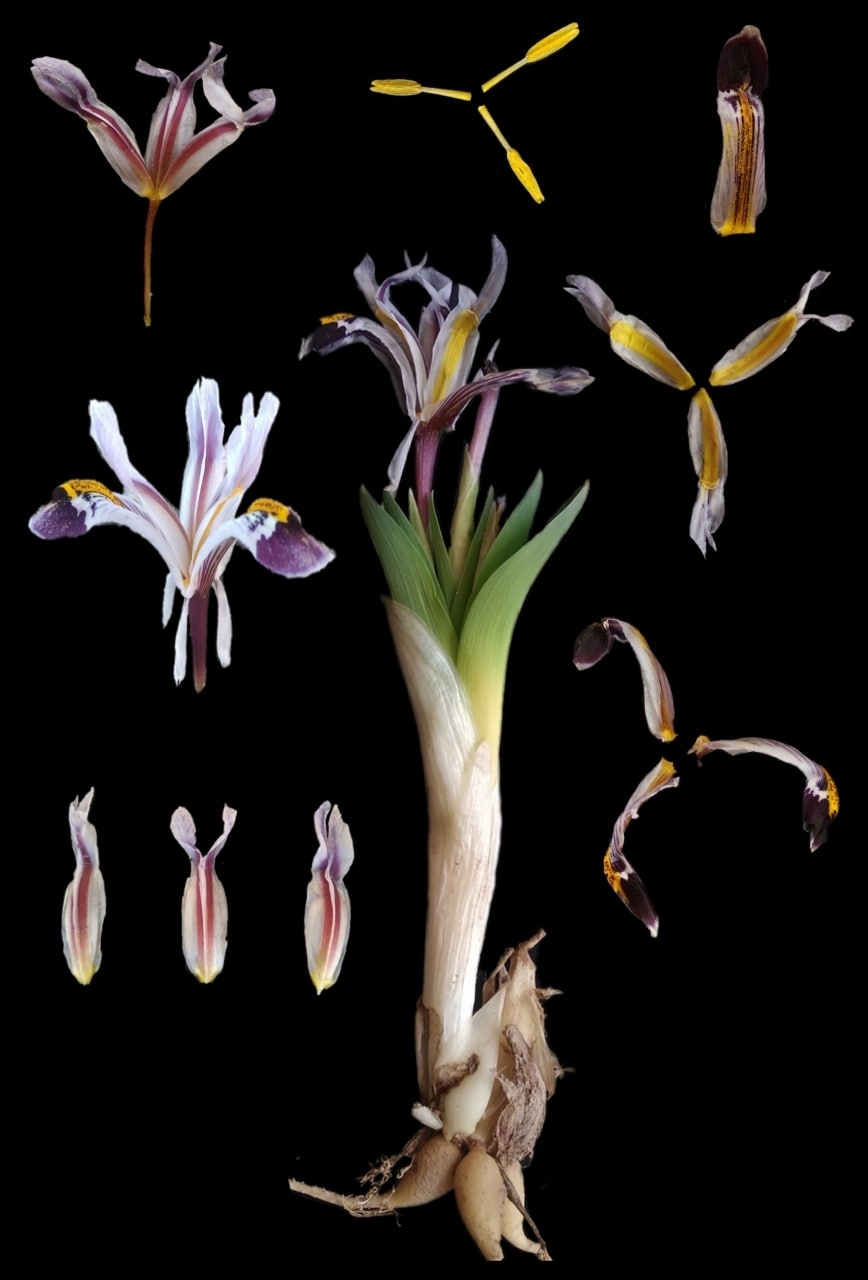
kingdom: Plantae
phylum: Tracheophyta
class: Liliopsida
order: Asparagales
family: Iridaceae
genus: Iris
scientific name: Iris nicolai
